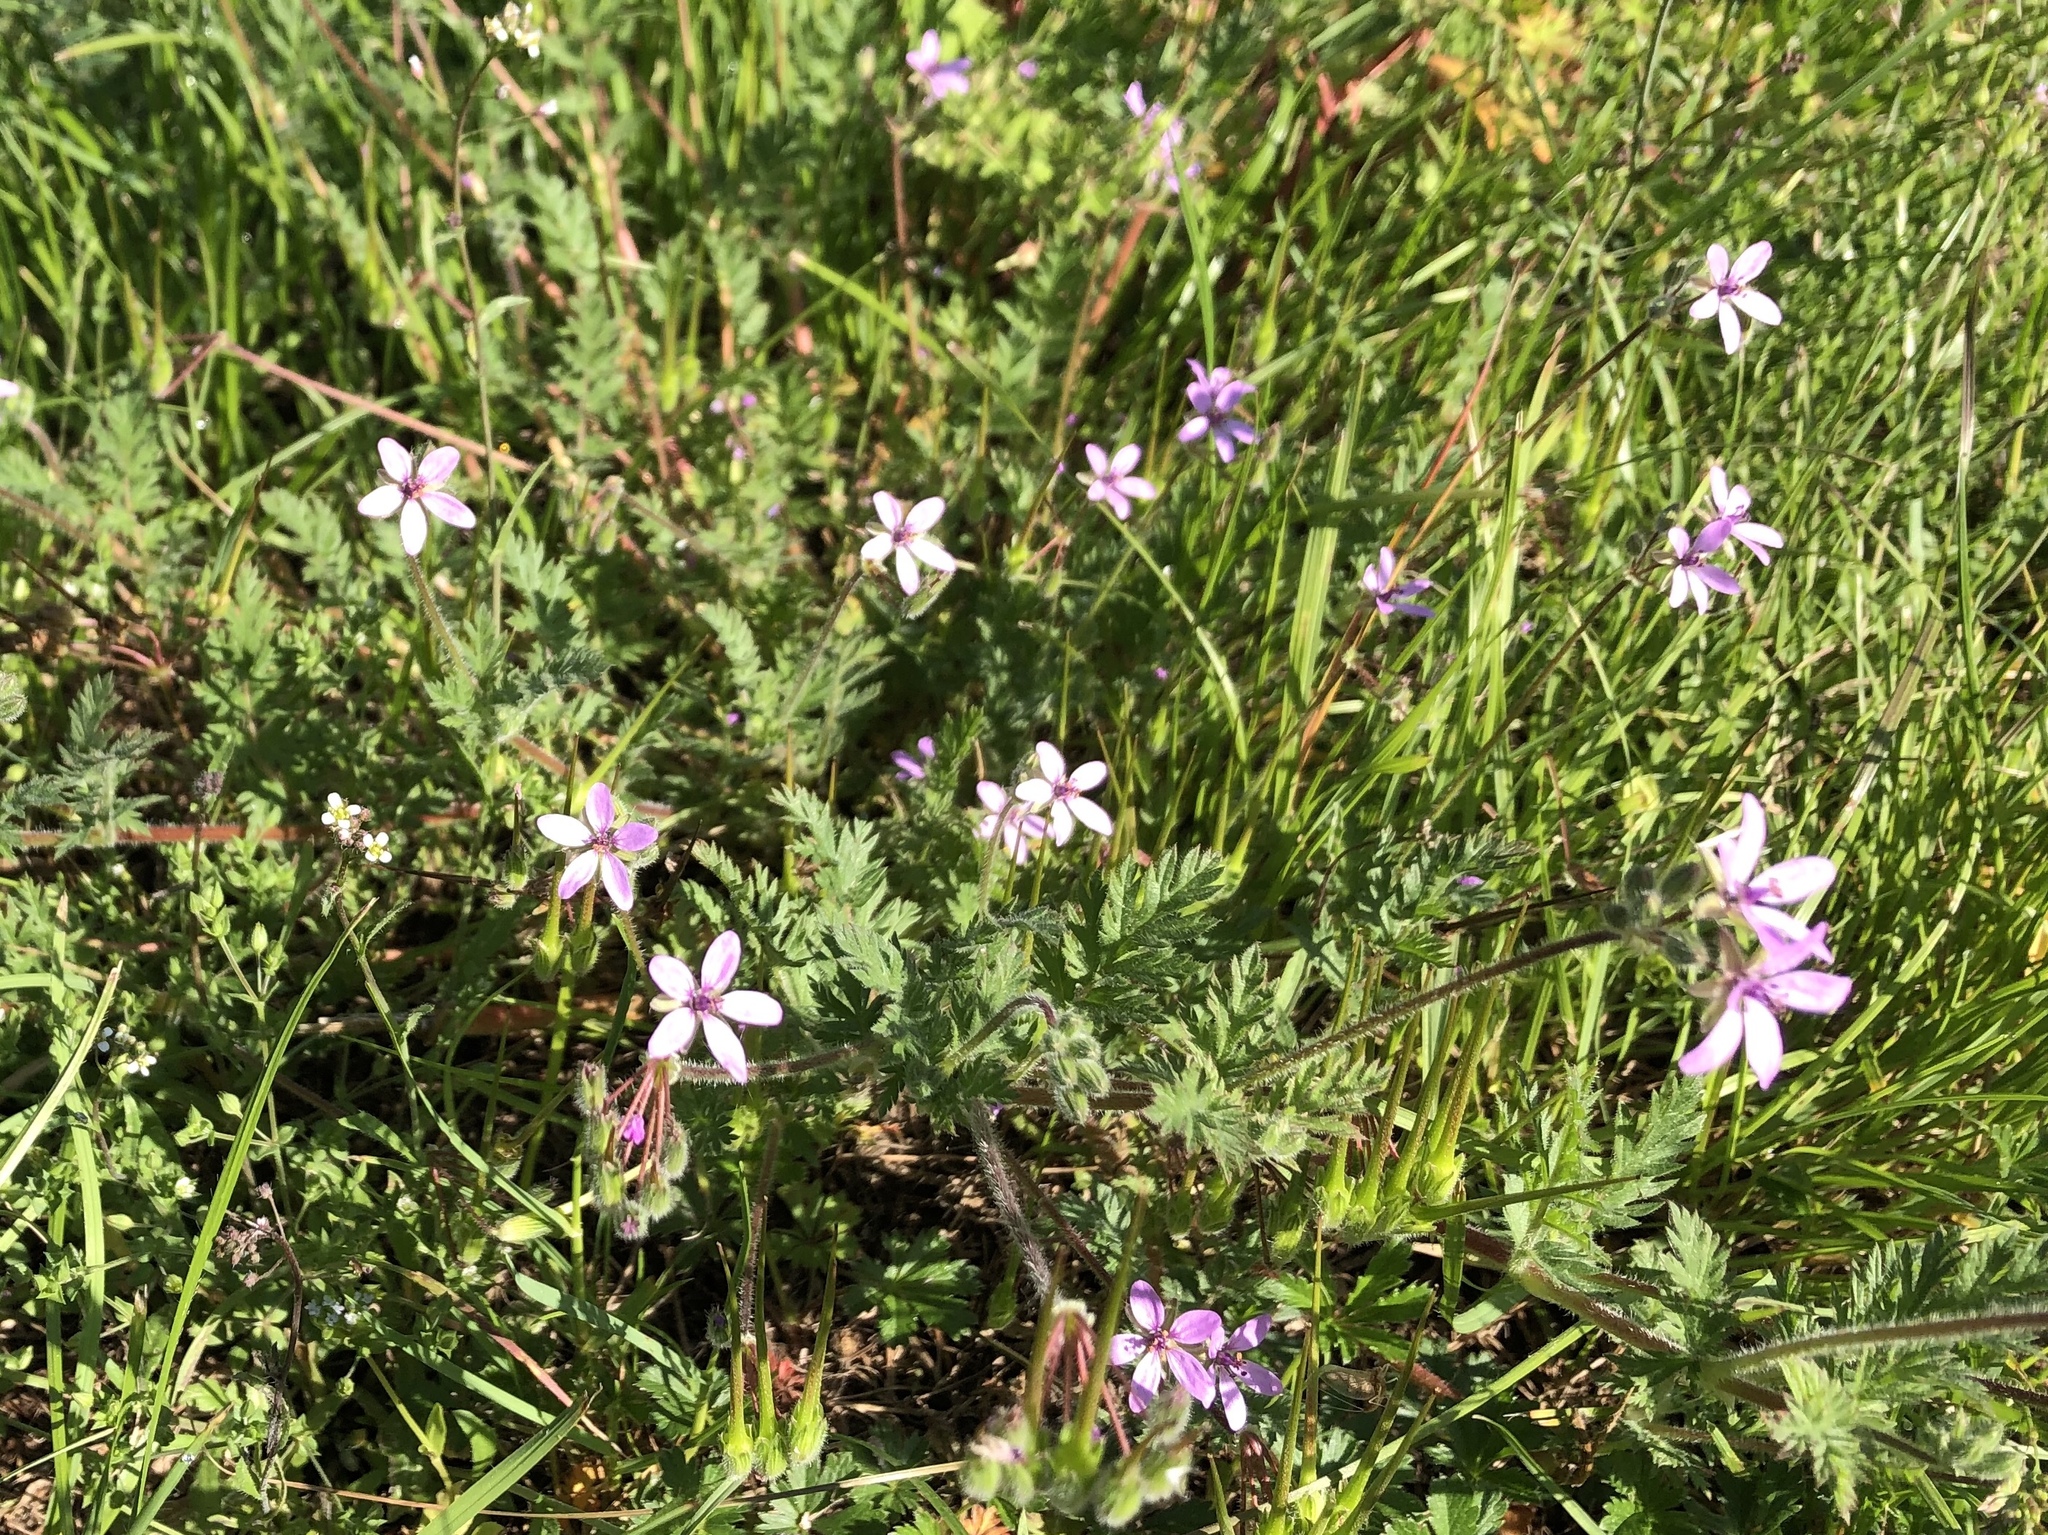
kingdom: Plantae
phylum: Tracheophyta
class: Magnoliopsida
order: Geraniales
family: Geraniaceae
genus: Erodium
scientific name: Erodium cicutarium
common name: Common stork's-bill
